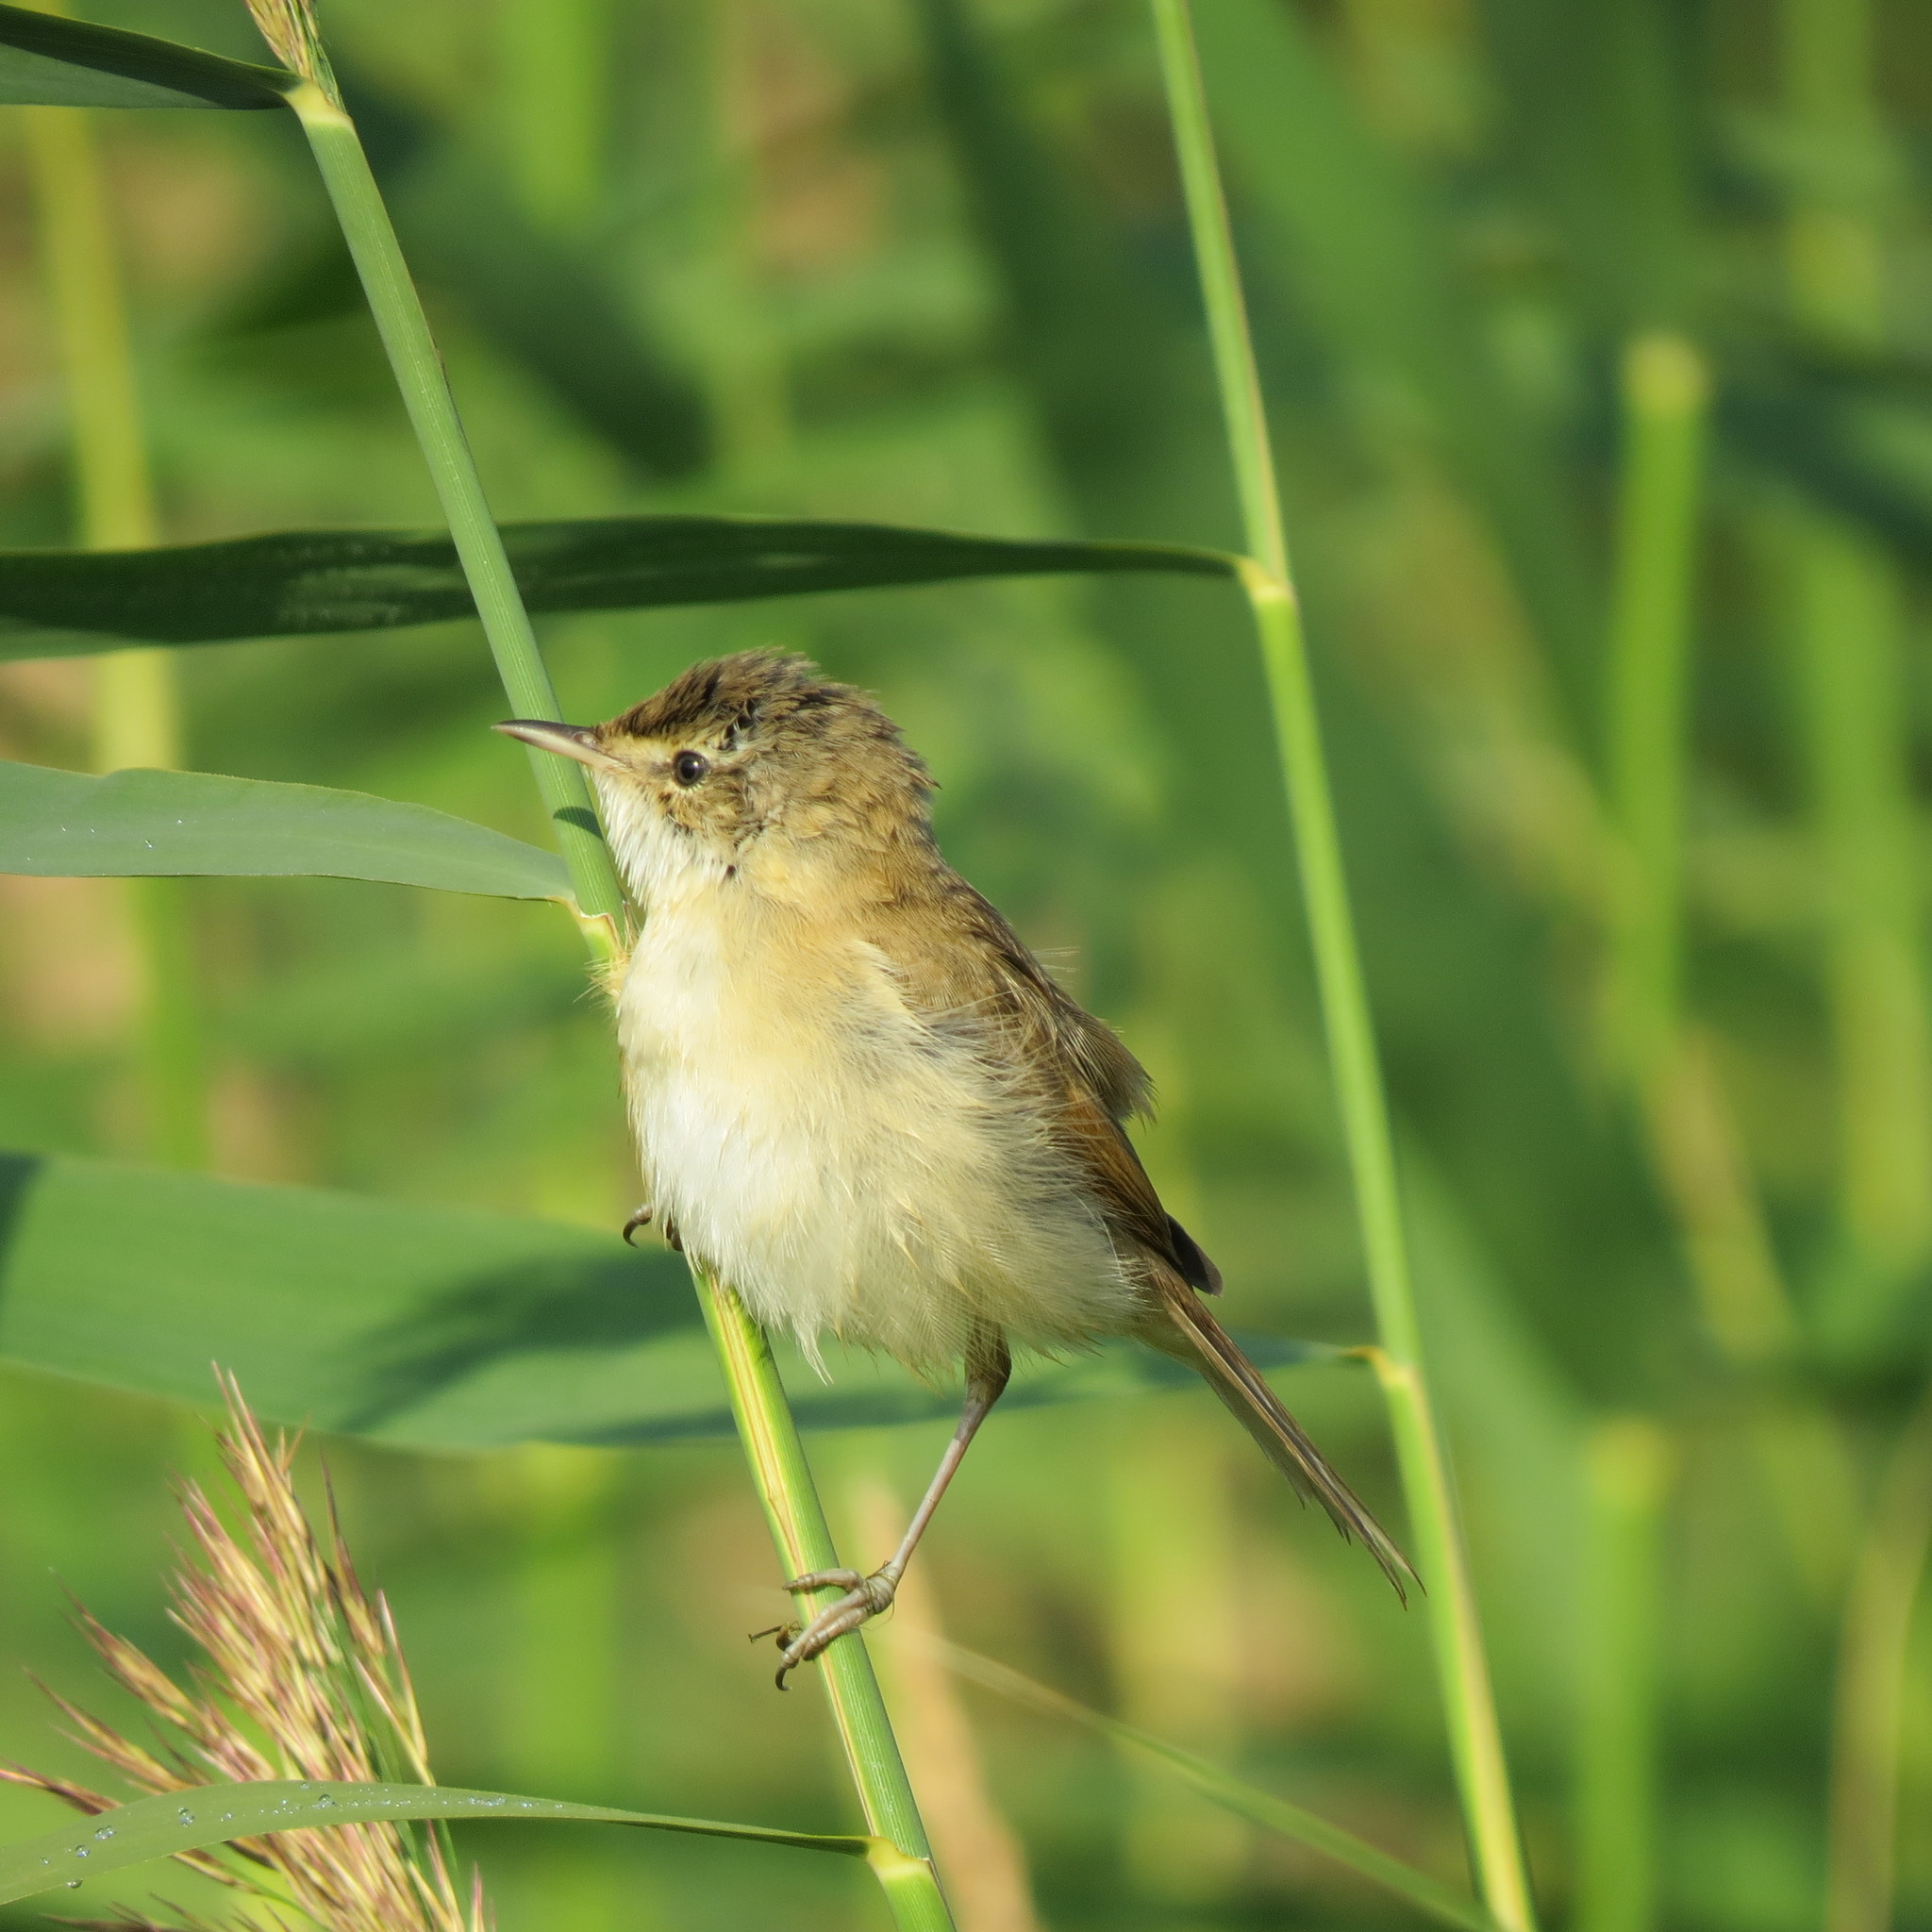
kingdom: Animalia
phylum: Chordata
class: Aves
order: Passeriformes
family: Acrocephalidae
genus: Acrocephalus
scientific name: Acrocephalus agricola
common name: Paddyfield warbler
